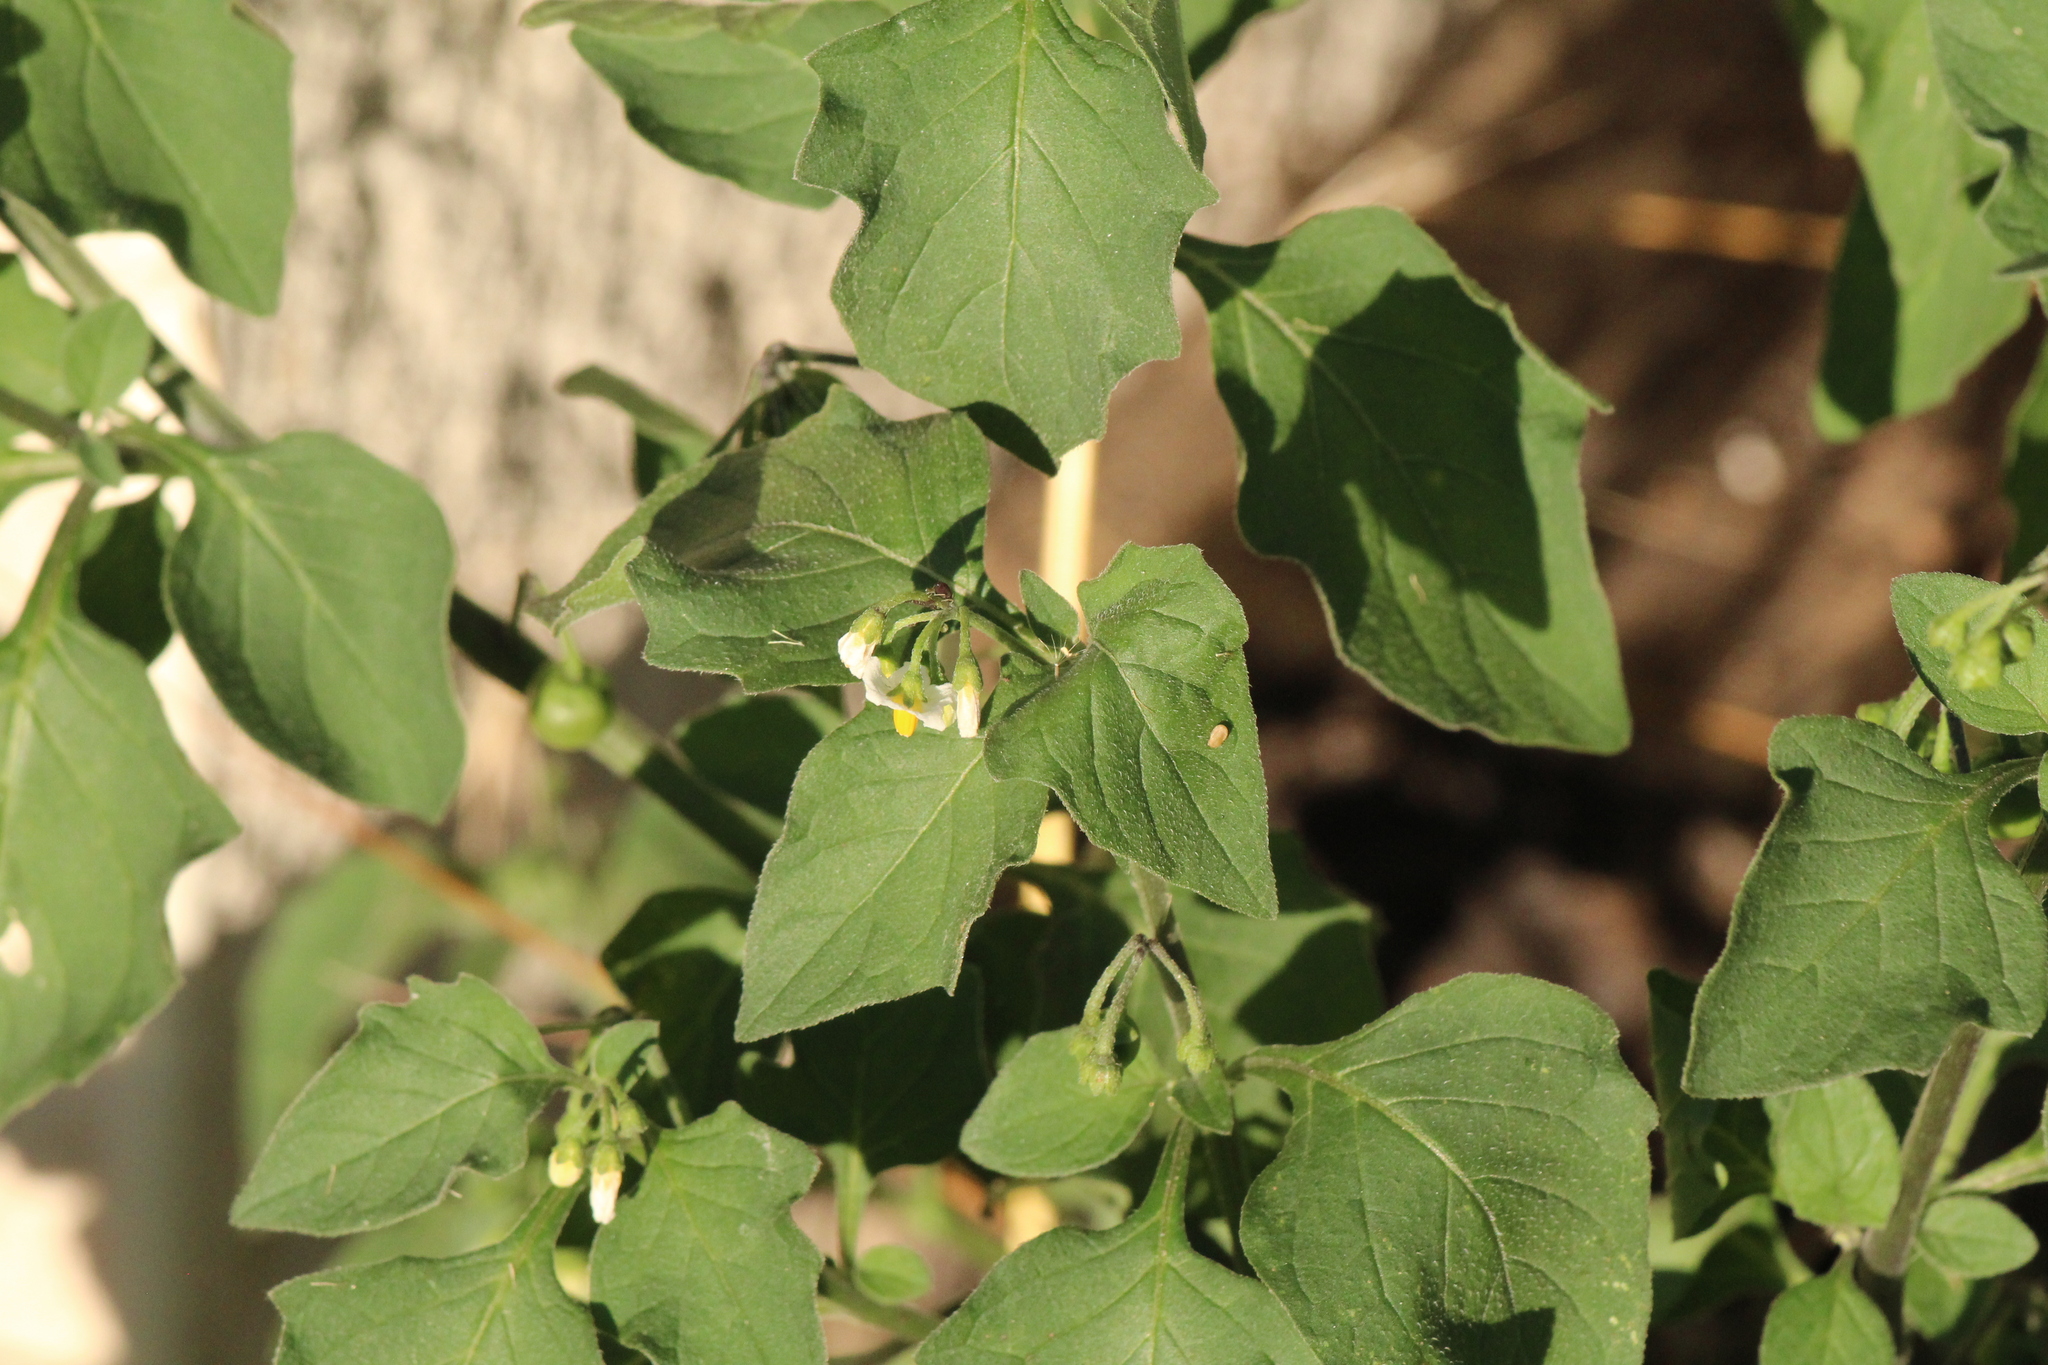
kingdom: Plantae
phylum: Tracheophyta
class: Magnoliopsida
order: Solanales
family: Solanaceae
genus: Solanum
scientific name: Solanum nigrum
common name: Black nightshade
